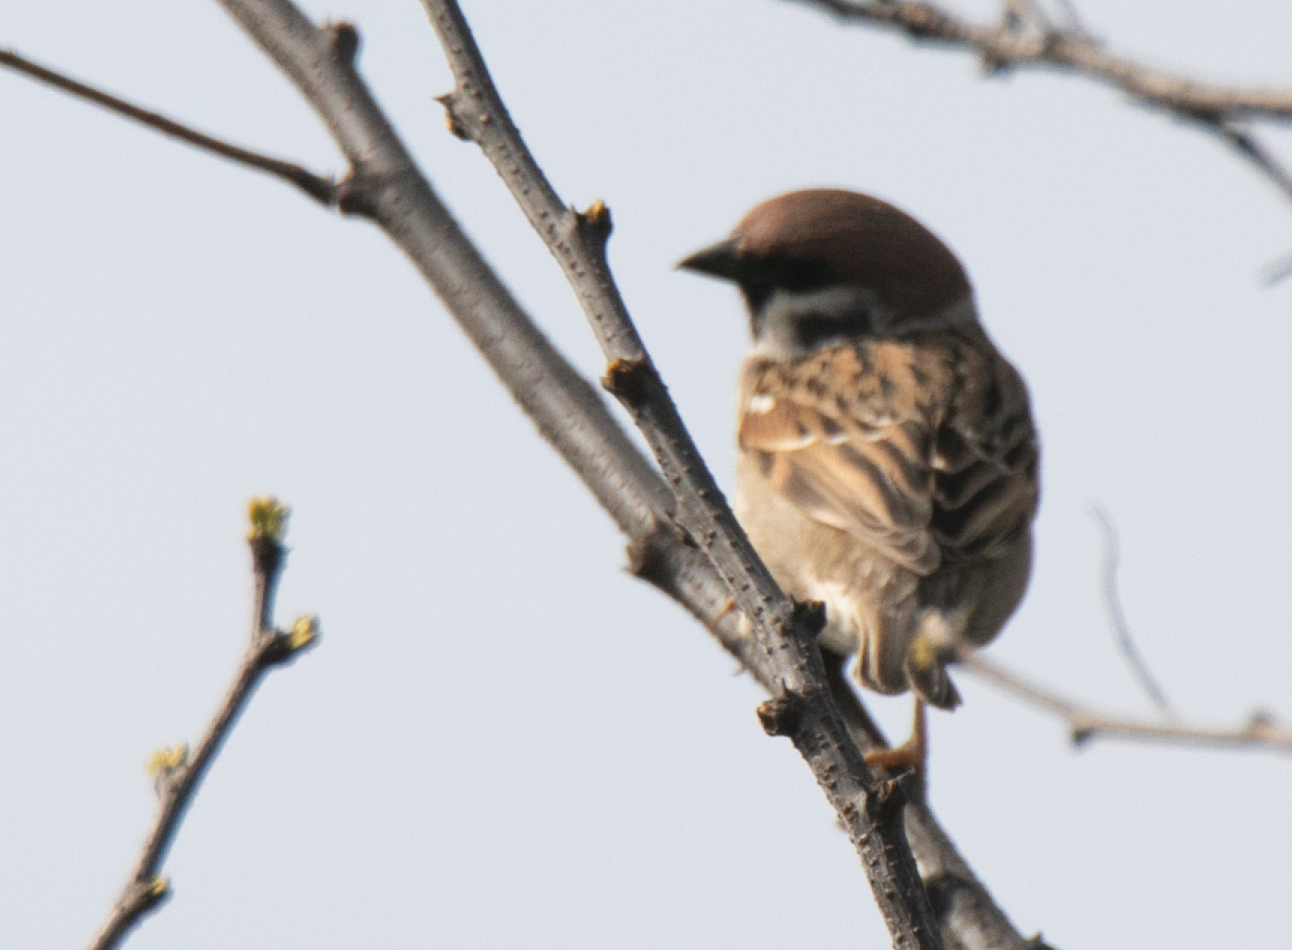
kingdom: Animalia
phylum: Chordata
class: Aves
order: Passeriformes
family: Passeridae
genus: Passer
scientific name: Passer montanus
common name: Eurasian tree sparrow
